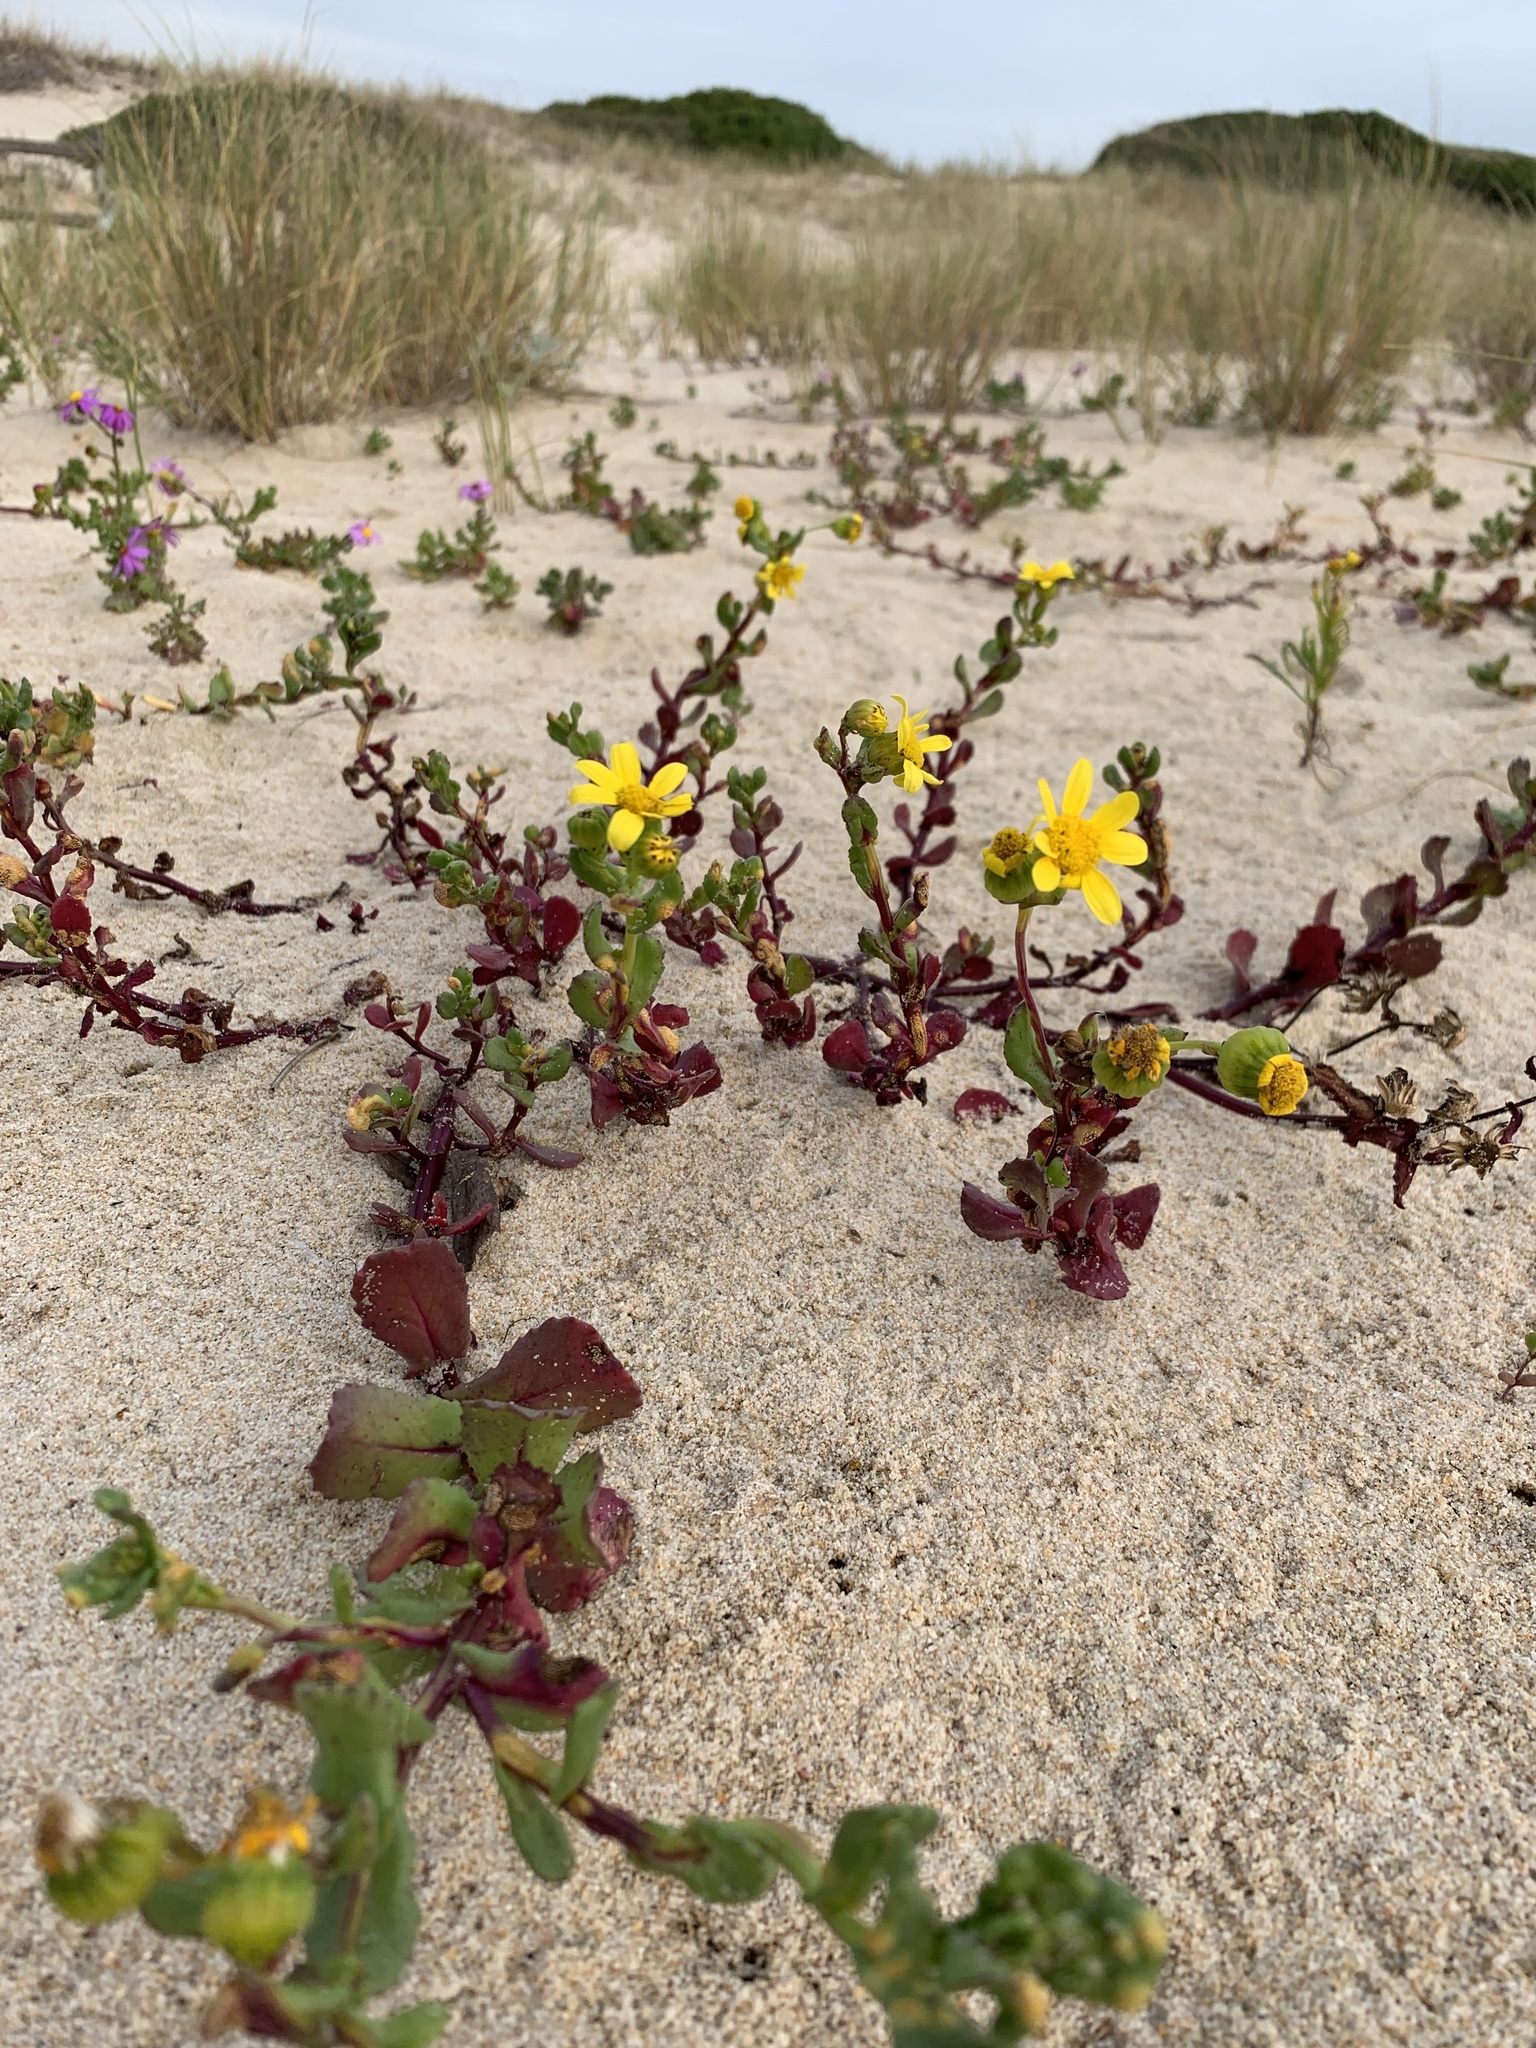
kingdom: Plantae
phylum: Tracheophyta
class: Magnoliopsida
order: Asterales
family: Asteraceae
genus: Senecio
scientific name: Senecio maritimus
